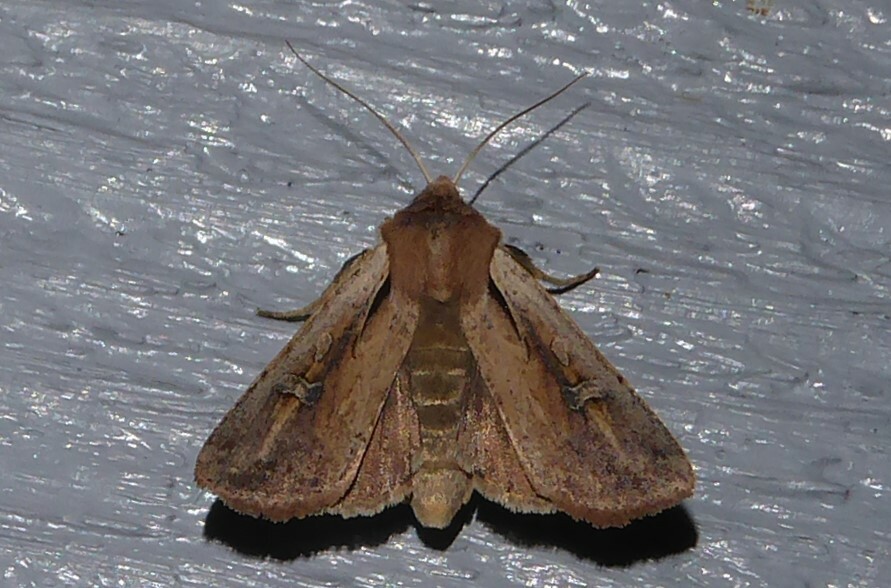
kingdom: Animalia
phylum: Arthropoda
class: Insecta
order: Lepidoptera
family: Noctuidae
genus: Ichneutica
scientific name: Ichneutica atristriga
